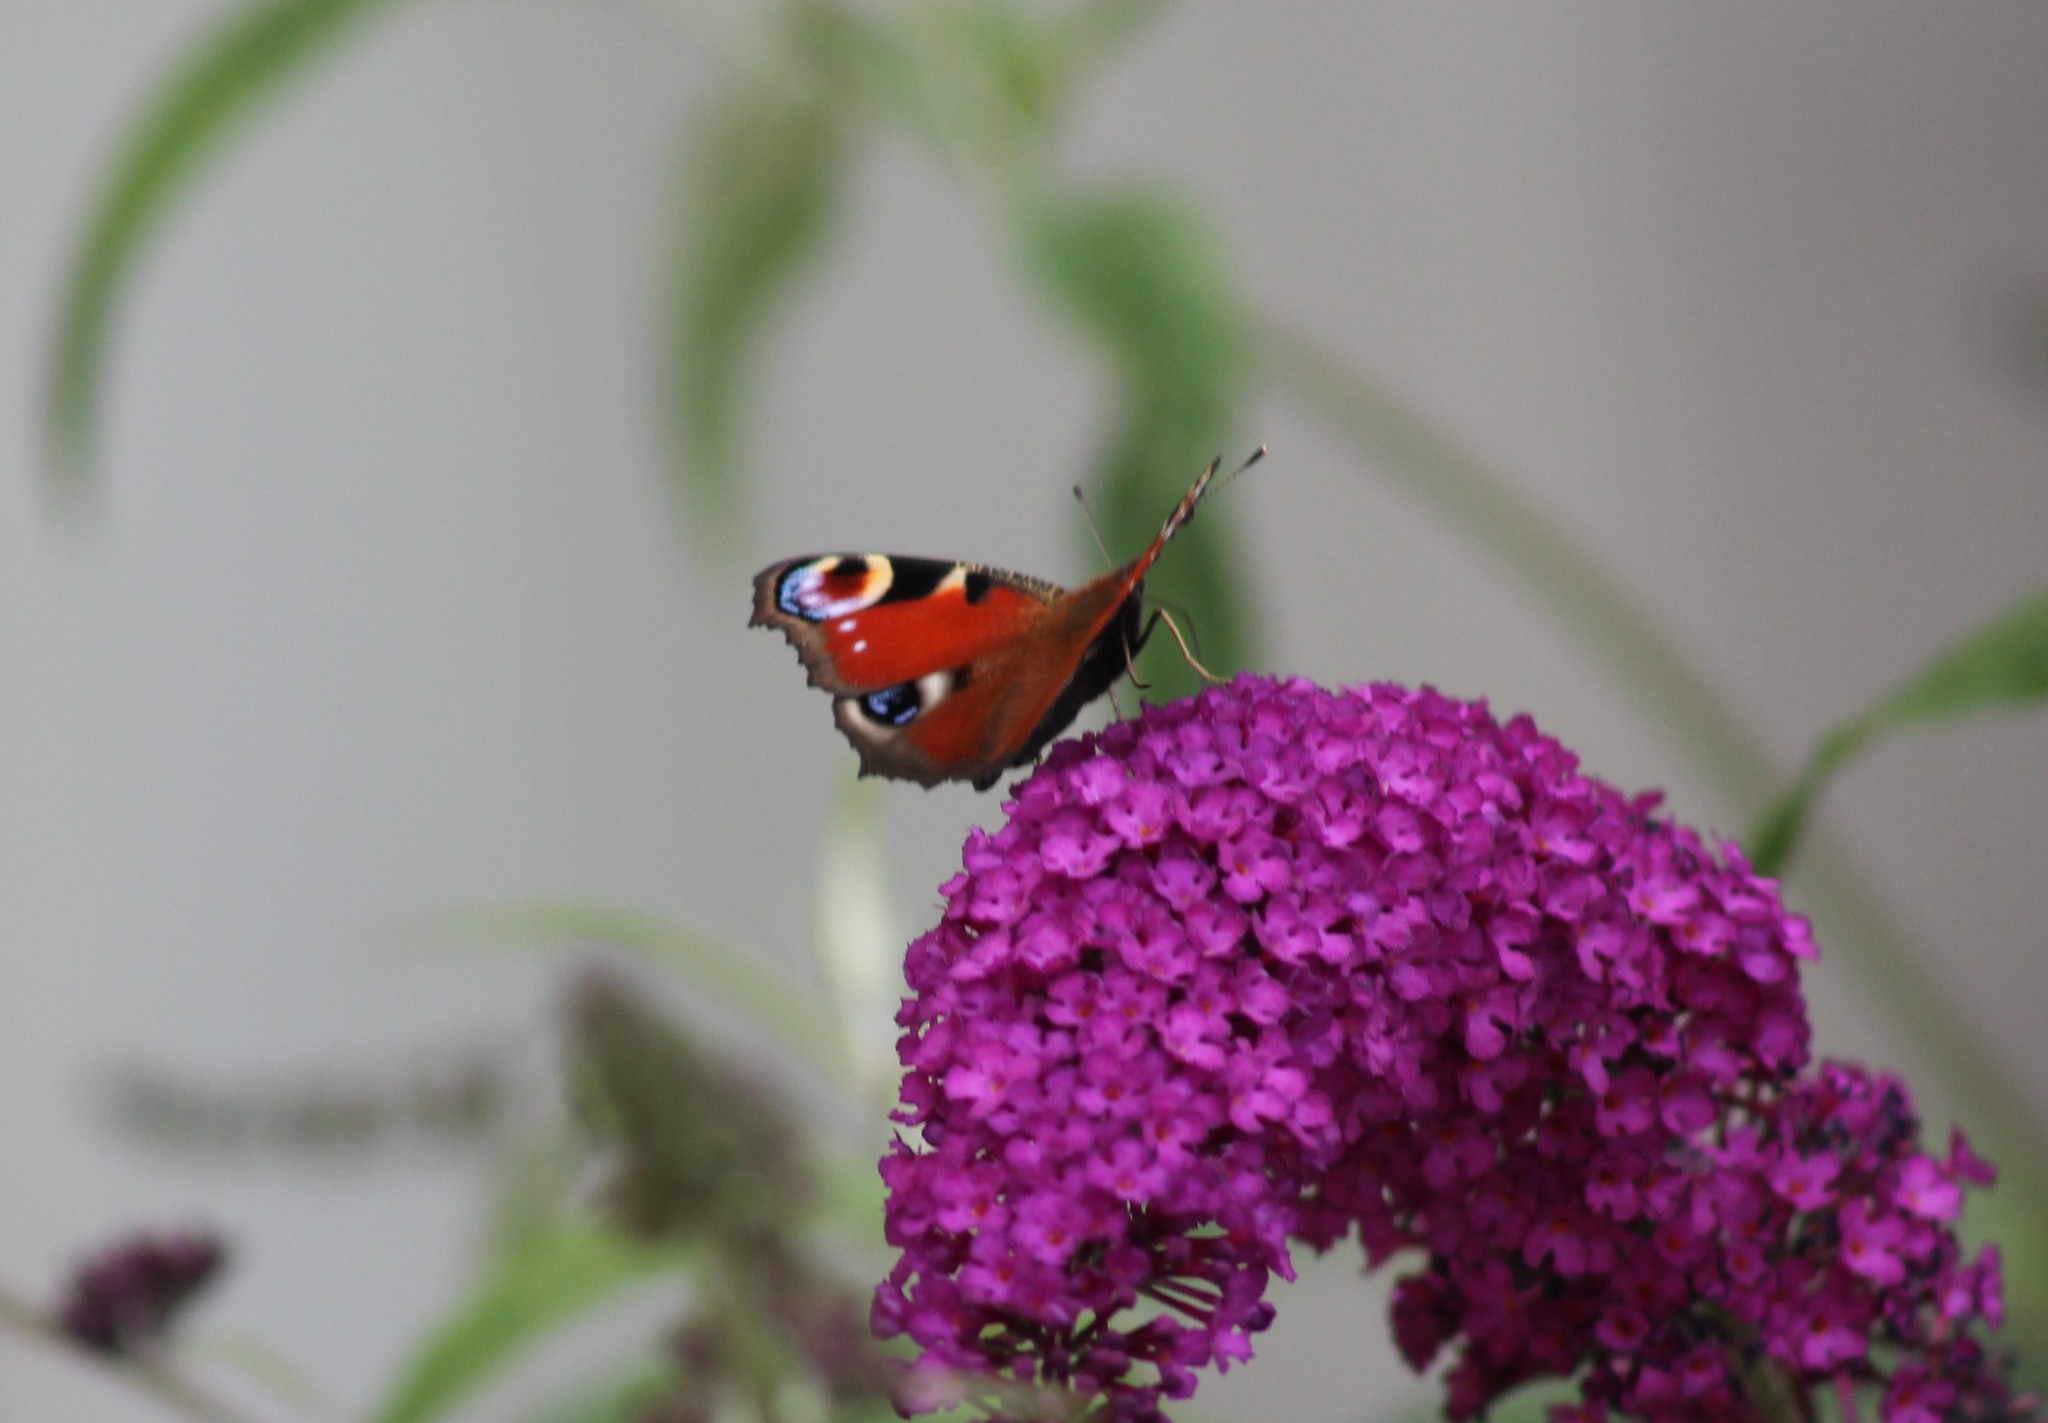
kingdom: Animalia
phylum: Arthropoda
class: Insecta
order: Lepidoptera
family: Nymphalidae
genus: Aglais
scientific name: Aglais io
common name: Peacock
